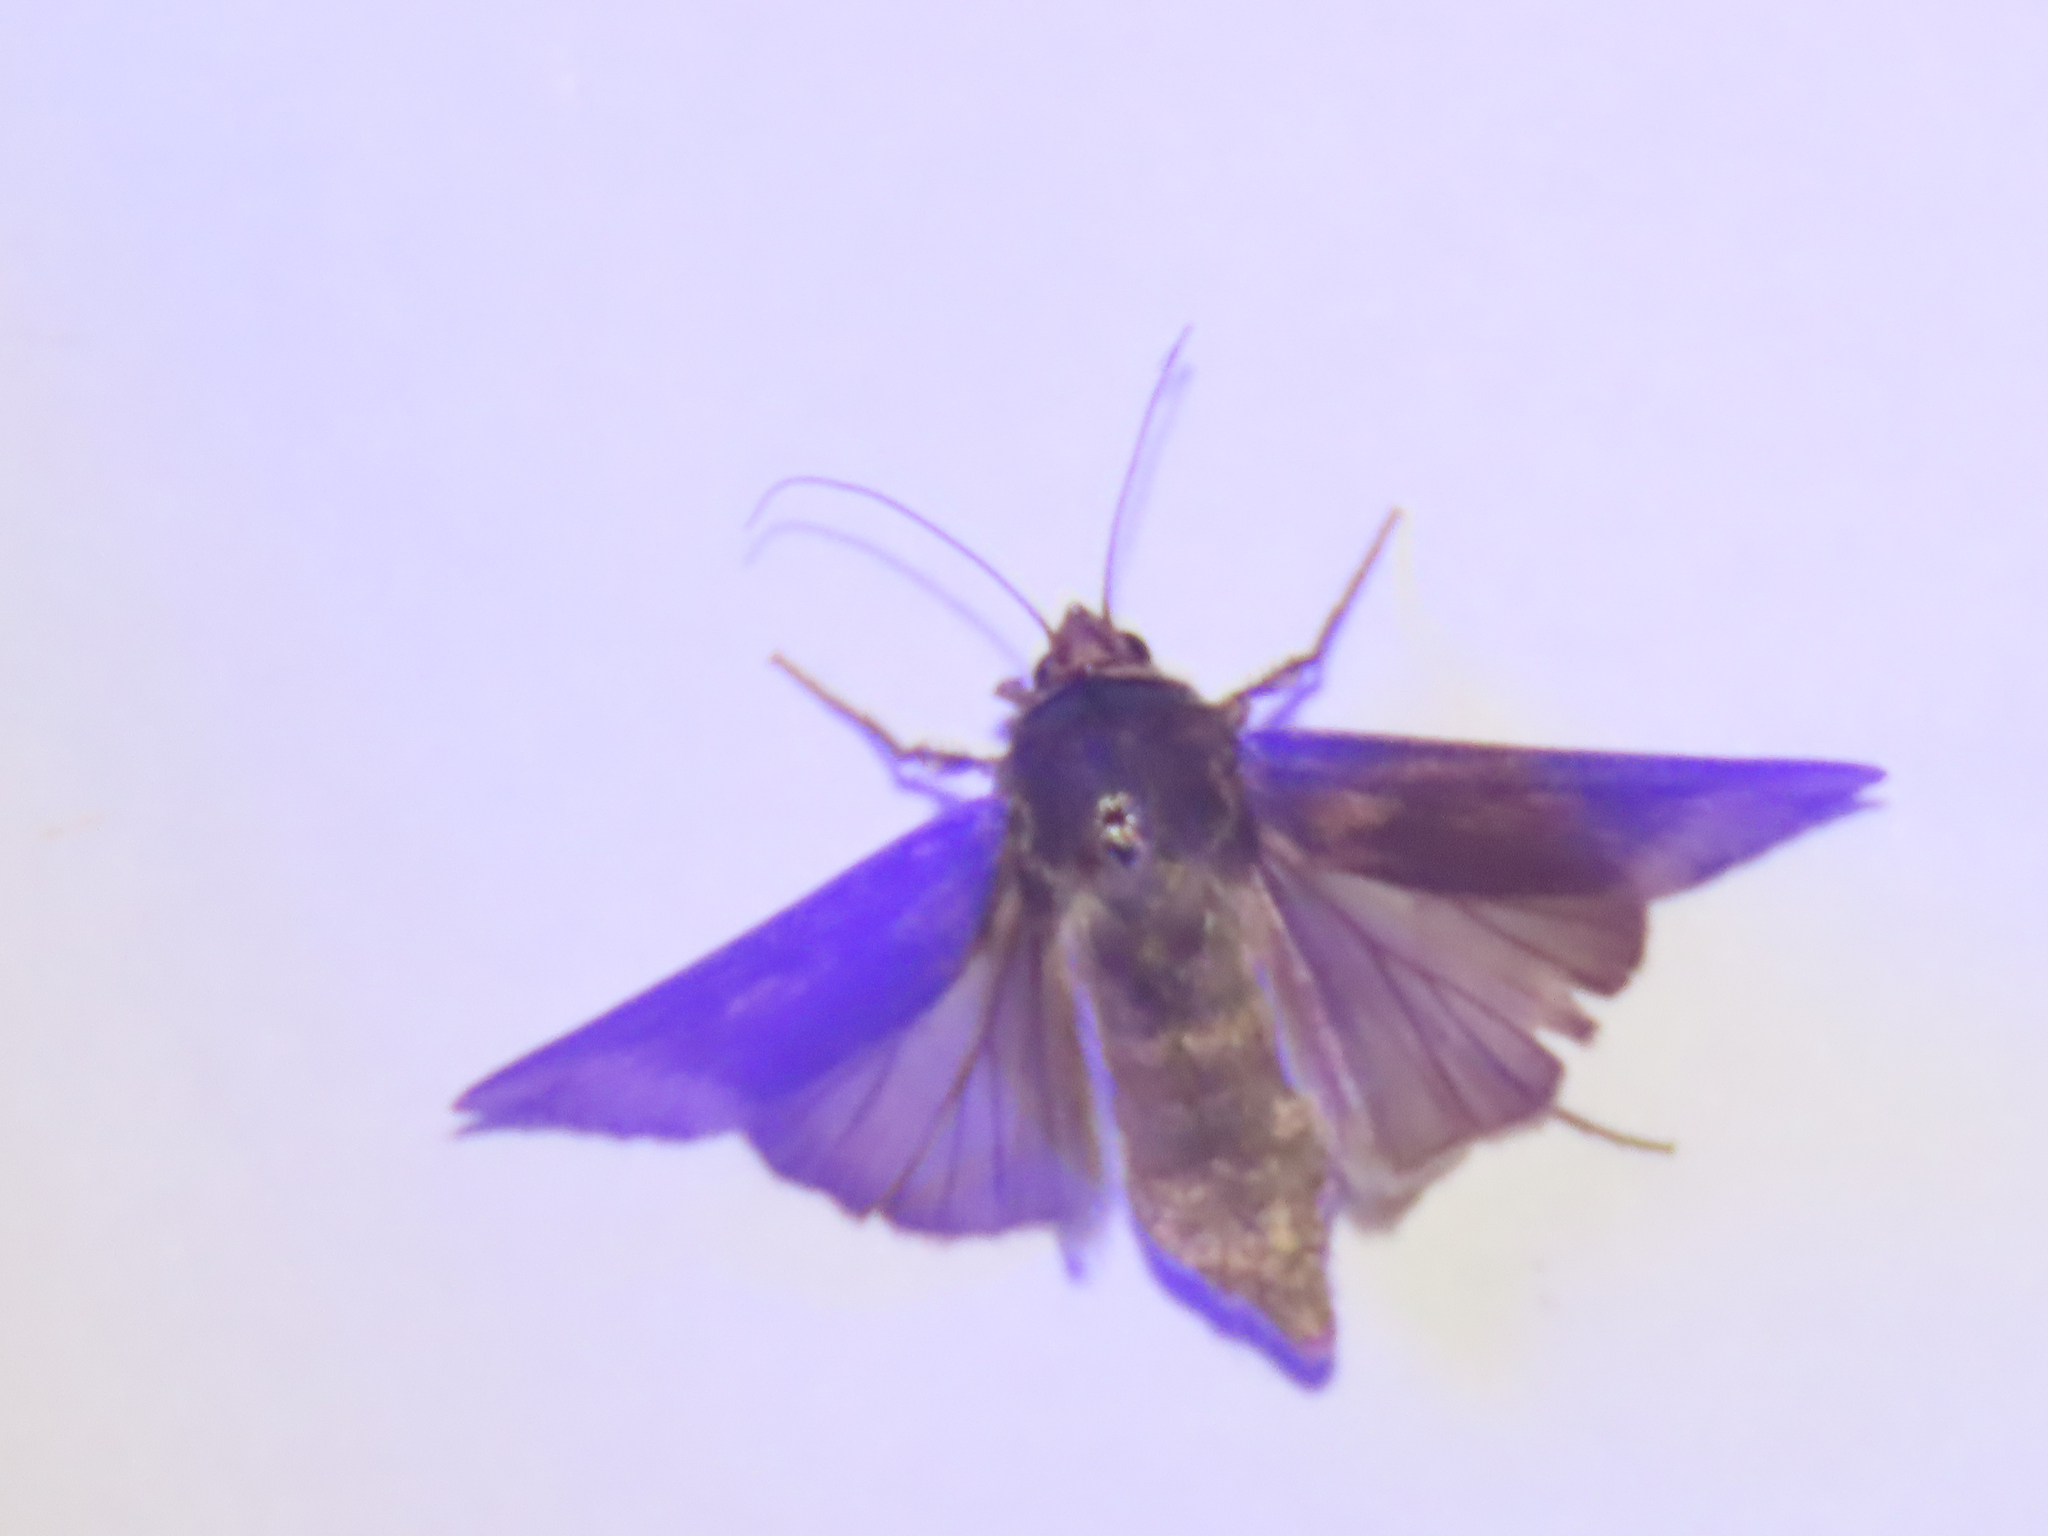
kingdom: Animalia
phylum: Arthropoda
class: Insecta
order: Lepidoptera
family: Noctuidae
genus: Agrotis
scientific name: Agrotis ipsilon
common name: Dark sword-grass
